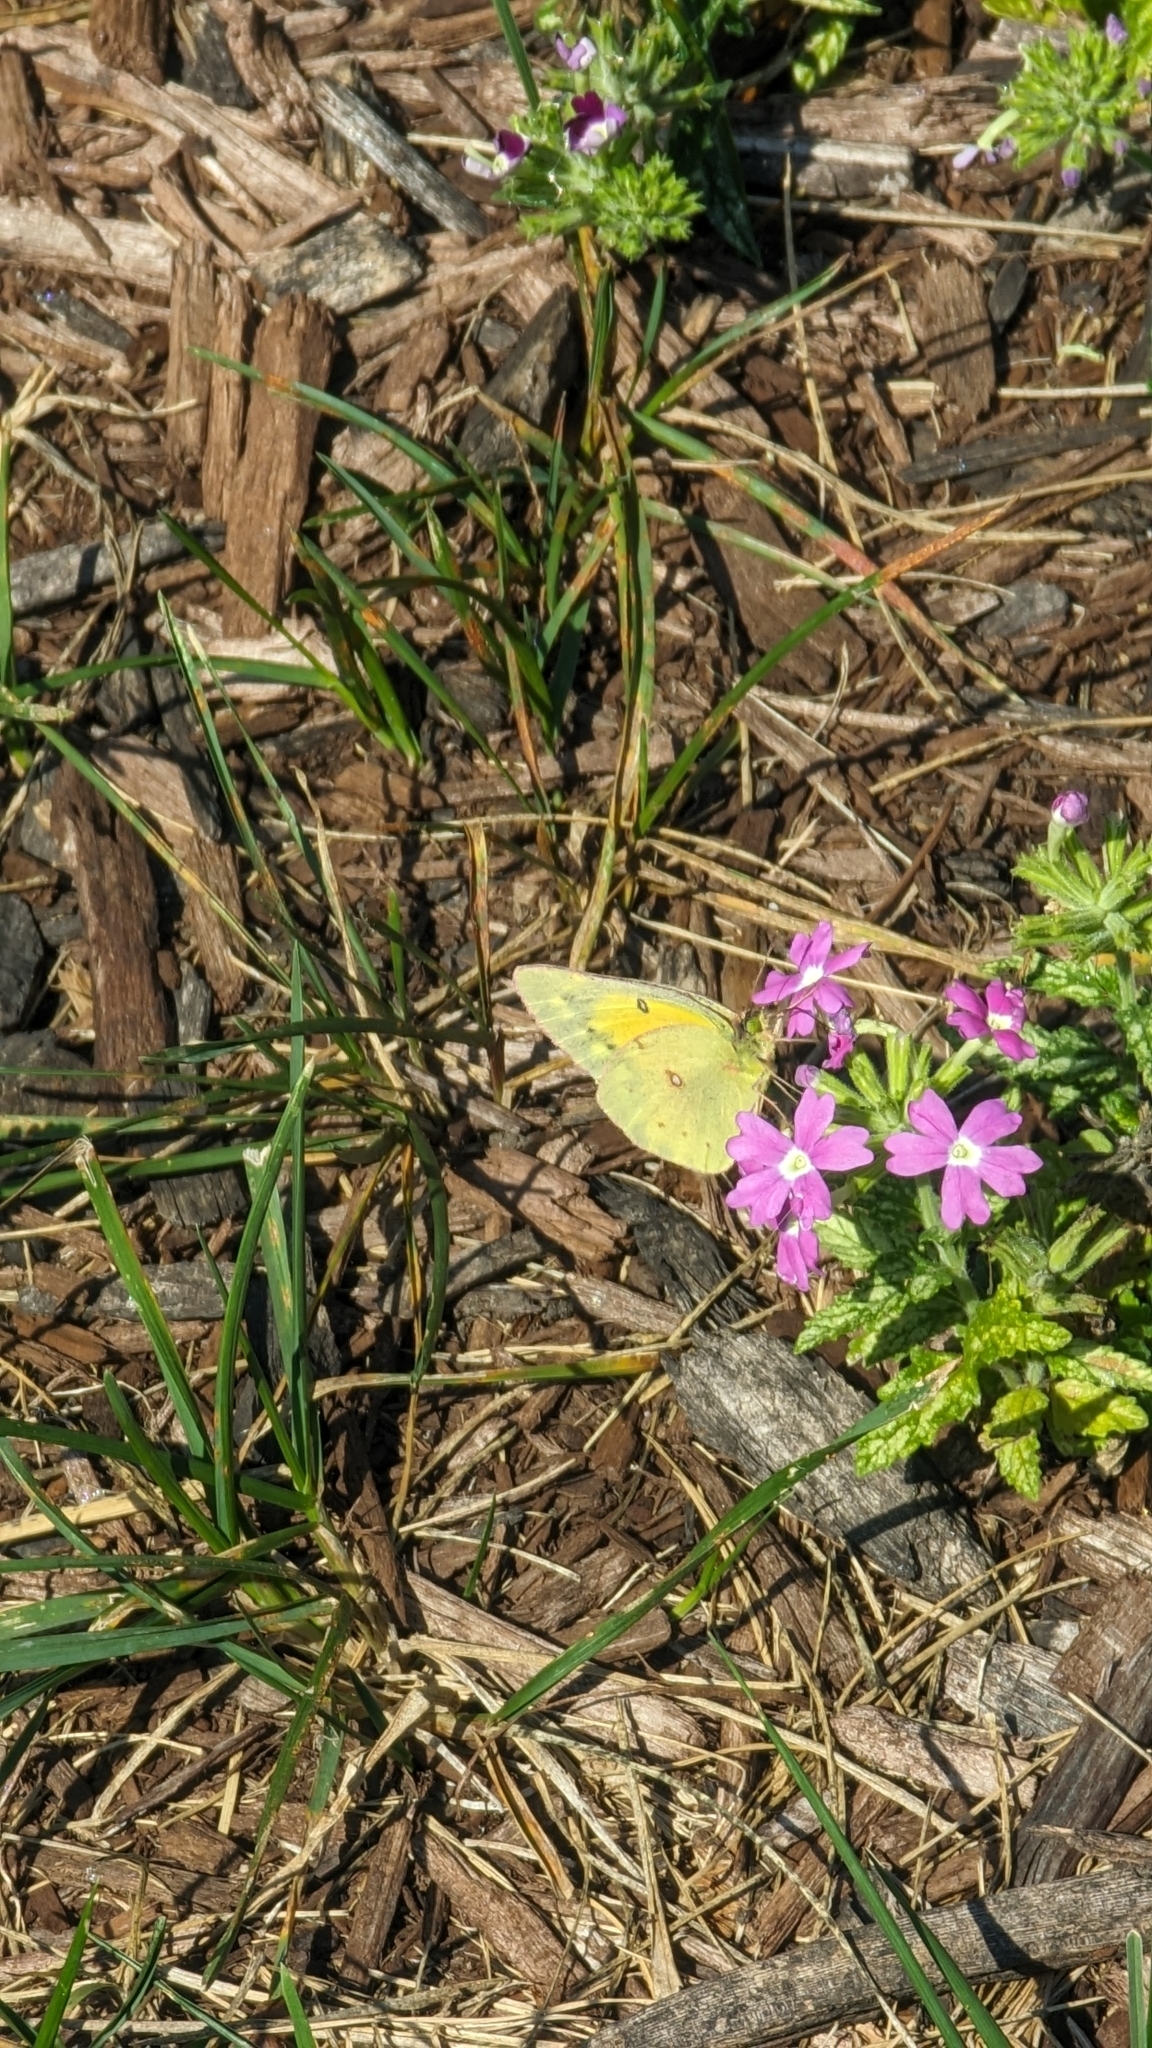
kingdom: Animalia
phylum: Arthropoda
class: Insecta
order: Lepidoptera
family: Pieridae
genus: Colias
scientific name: Colias eurytheme
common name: Alfalfa butterfly
